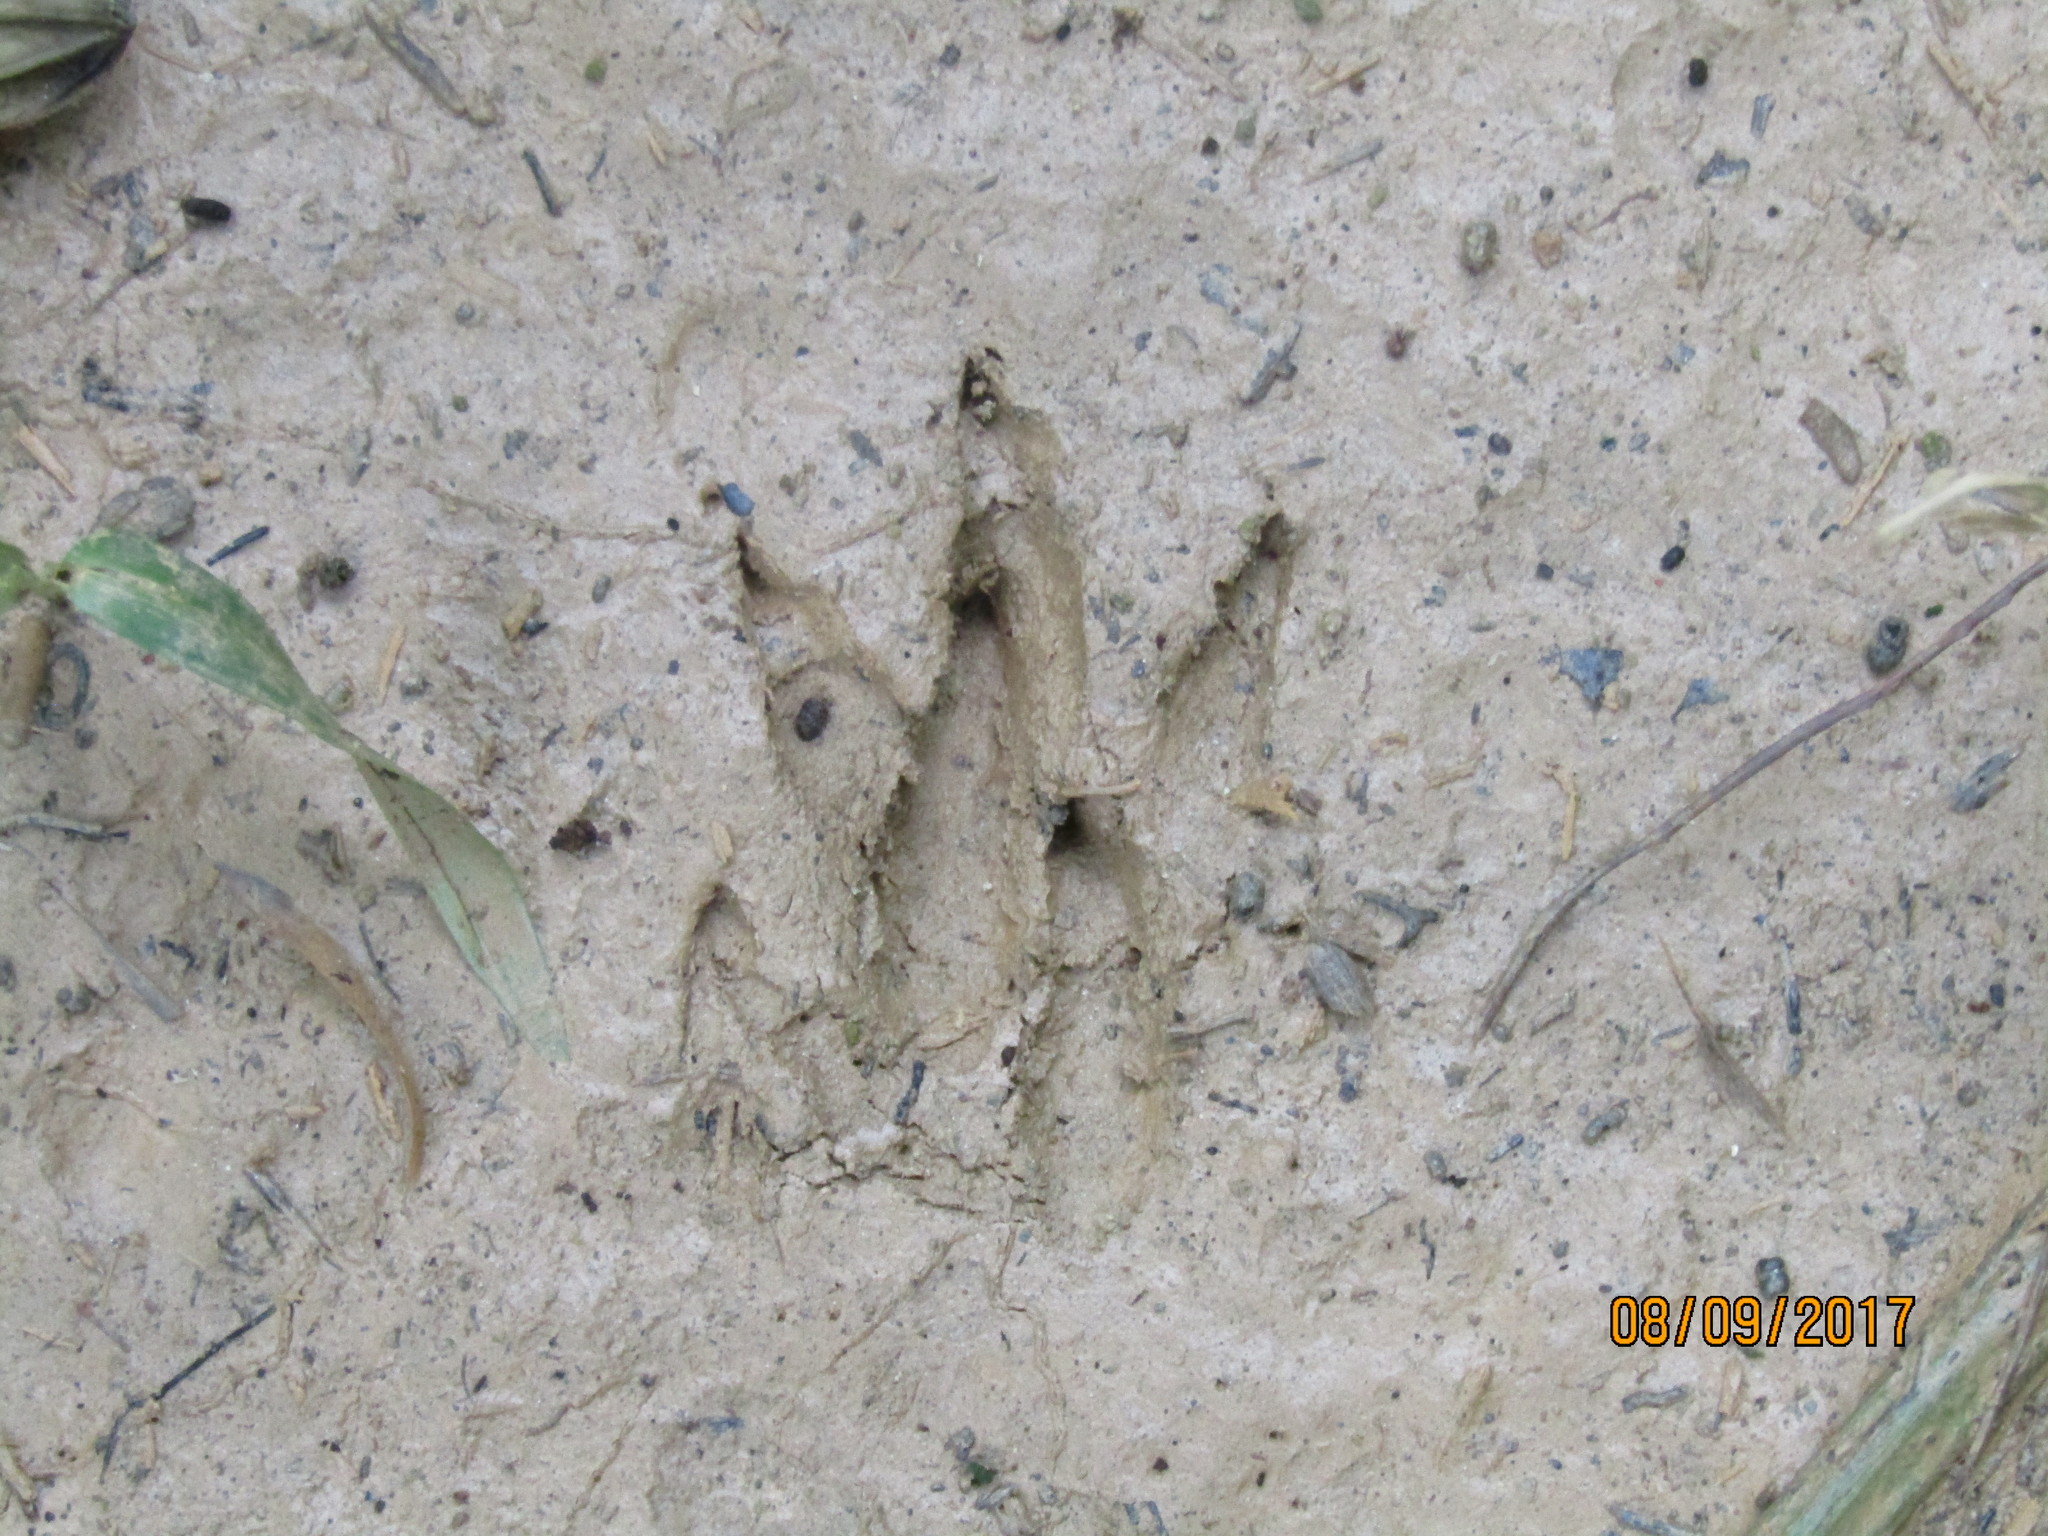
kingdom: Animalia
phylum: Chordata
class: Mammalia
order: Cingulata
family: Dasypodidae
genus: Dasypus
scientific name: Dasypus novemcinctus
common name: Nine-banded armadillo
